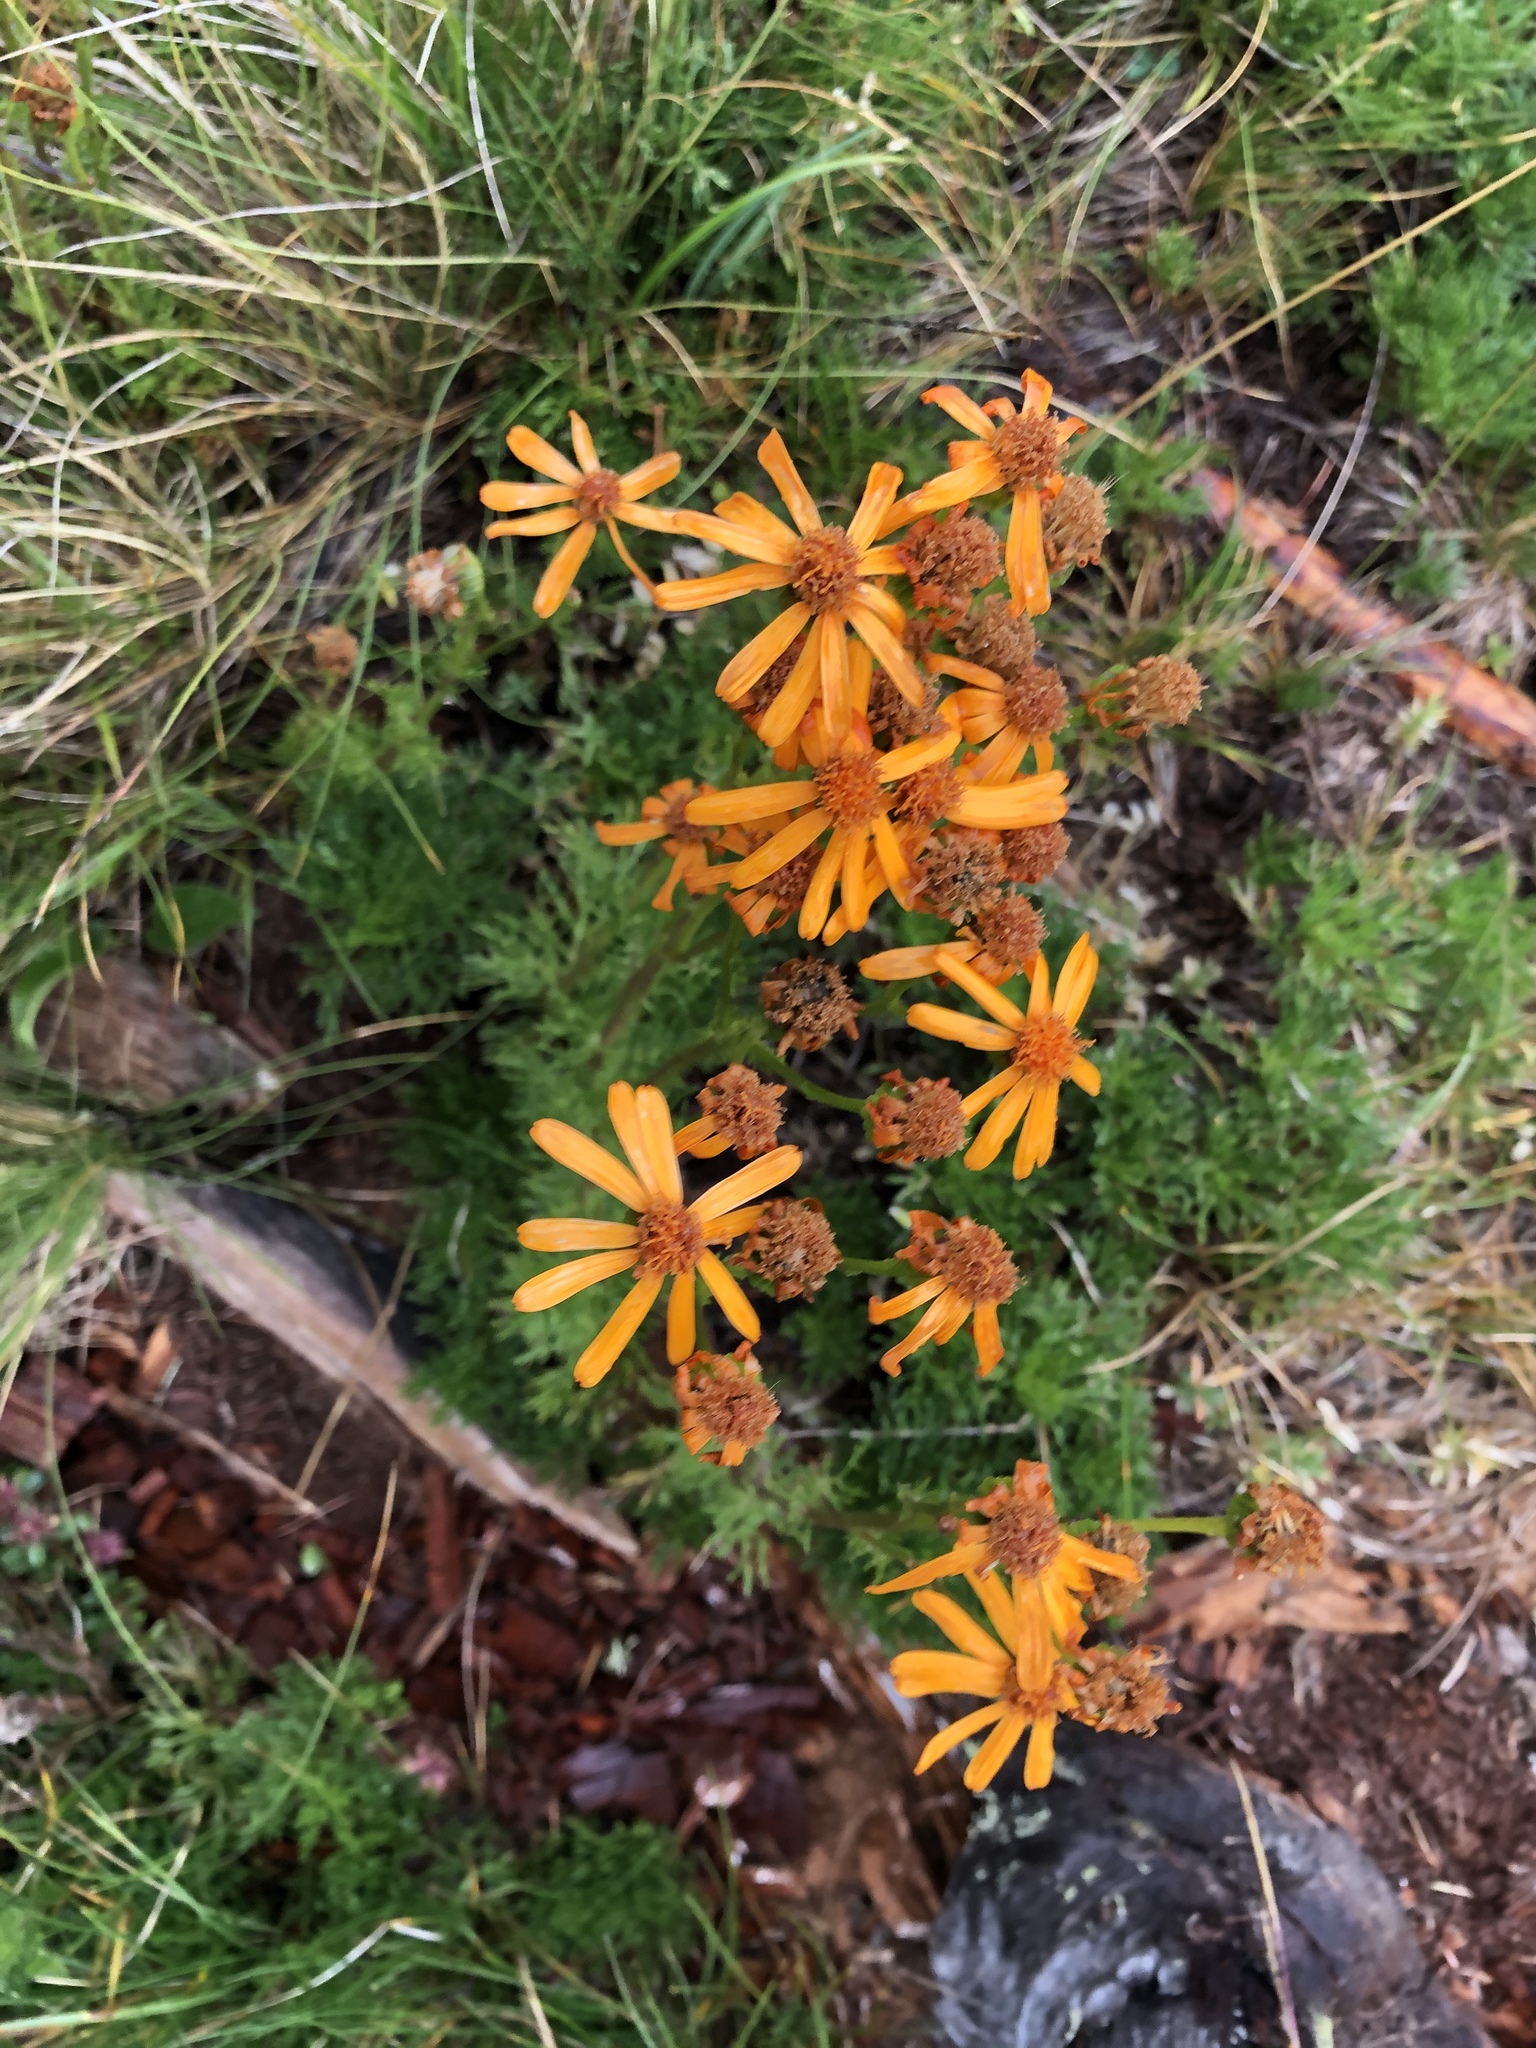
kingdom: Plantae
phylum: Tracheophyta
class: Magnoliopsida
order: Asterales
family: Asteraceae
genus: Jacobaea
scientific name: Jacobaea abrotanifolia
